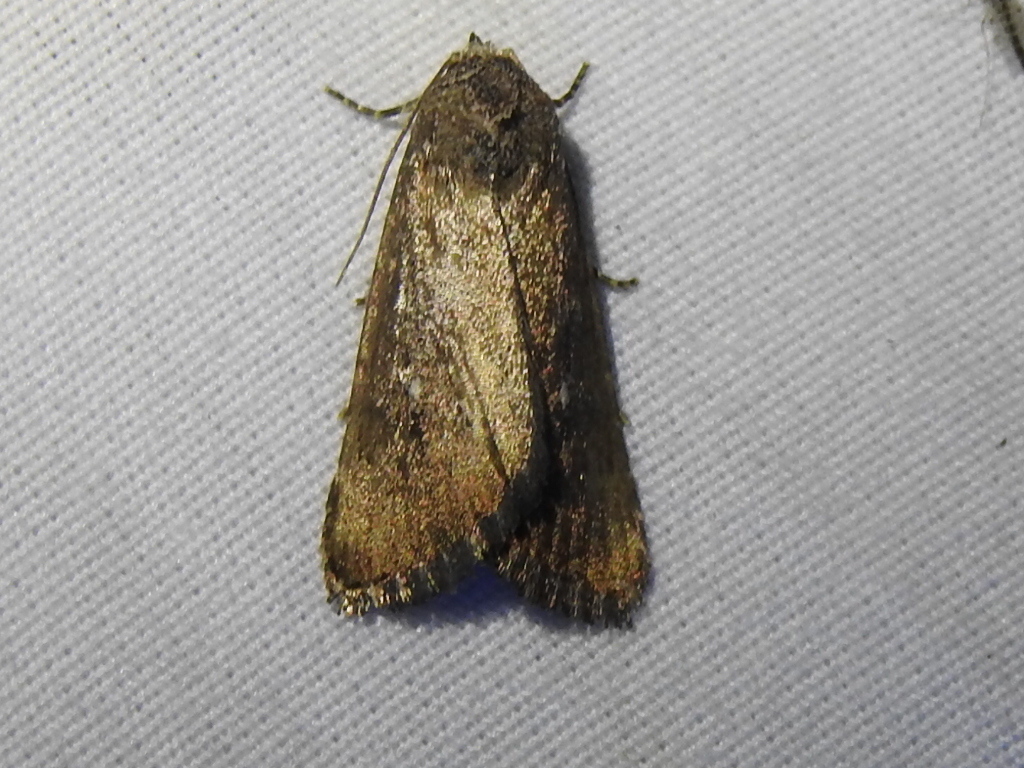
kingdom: Animalia
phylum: Arthropoda
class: Insecta
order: Lepidoptera
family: Noctuidae
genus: Condica
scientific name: Condica videns
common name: White-dotted groundling
